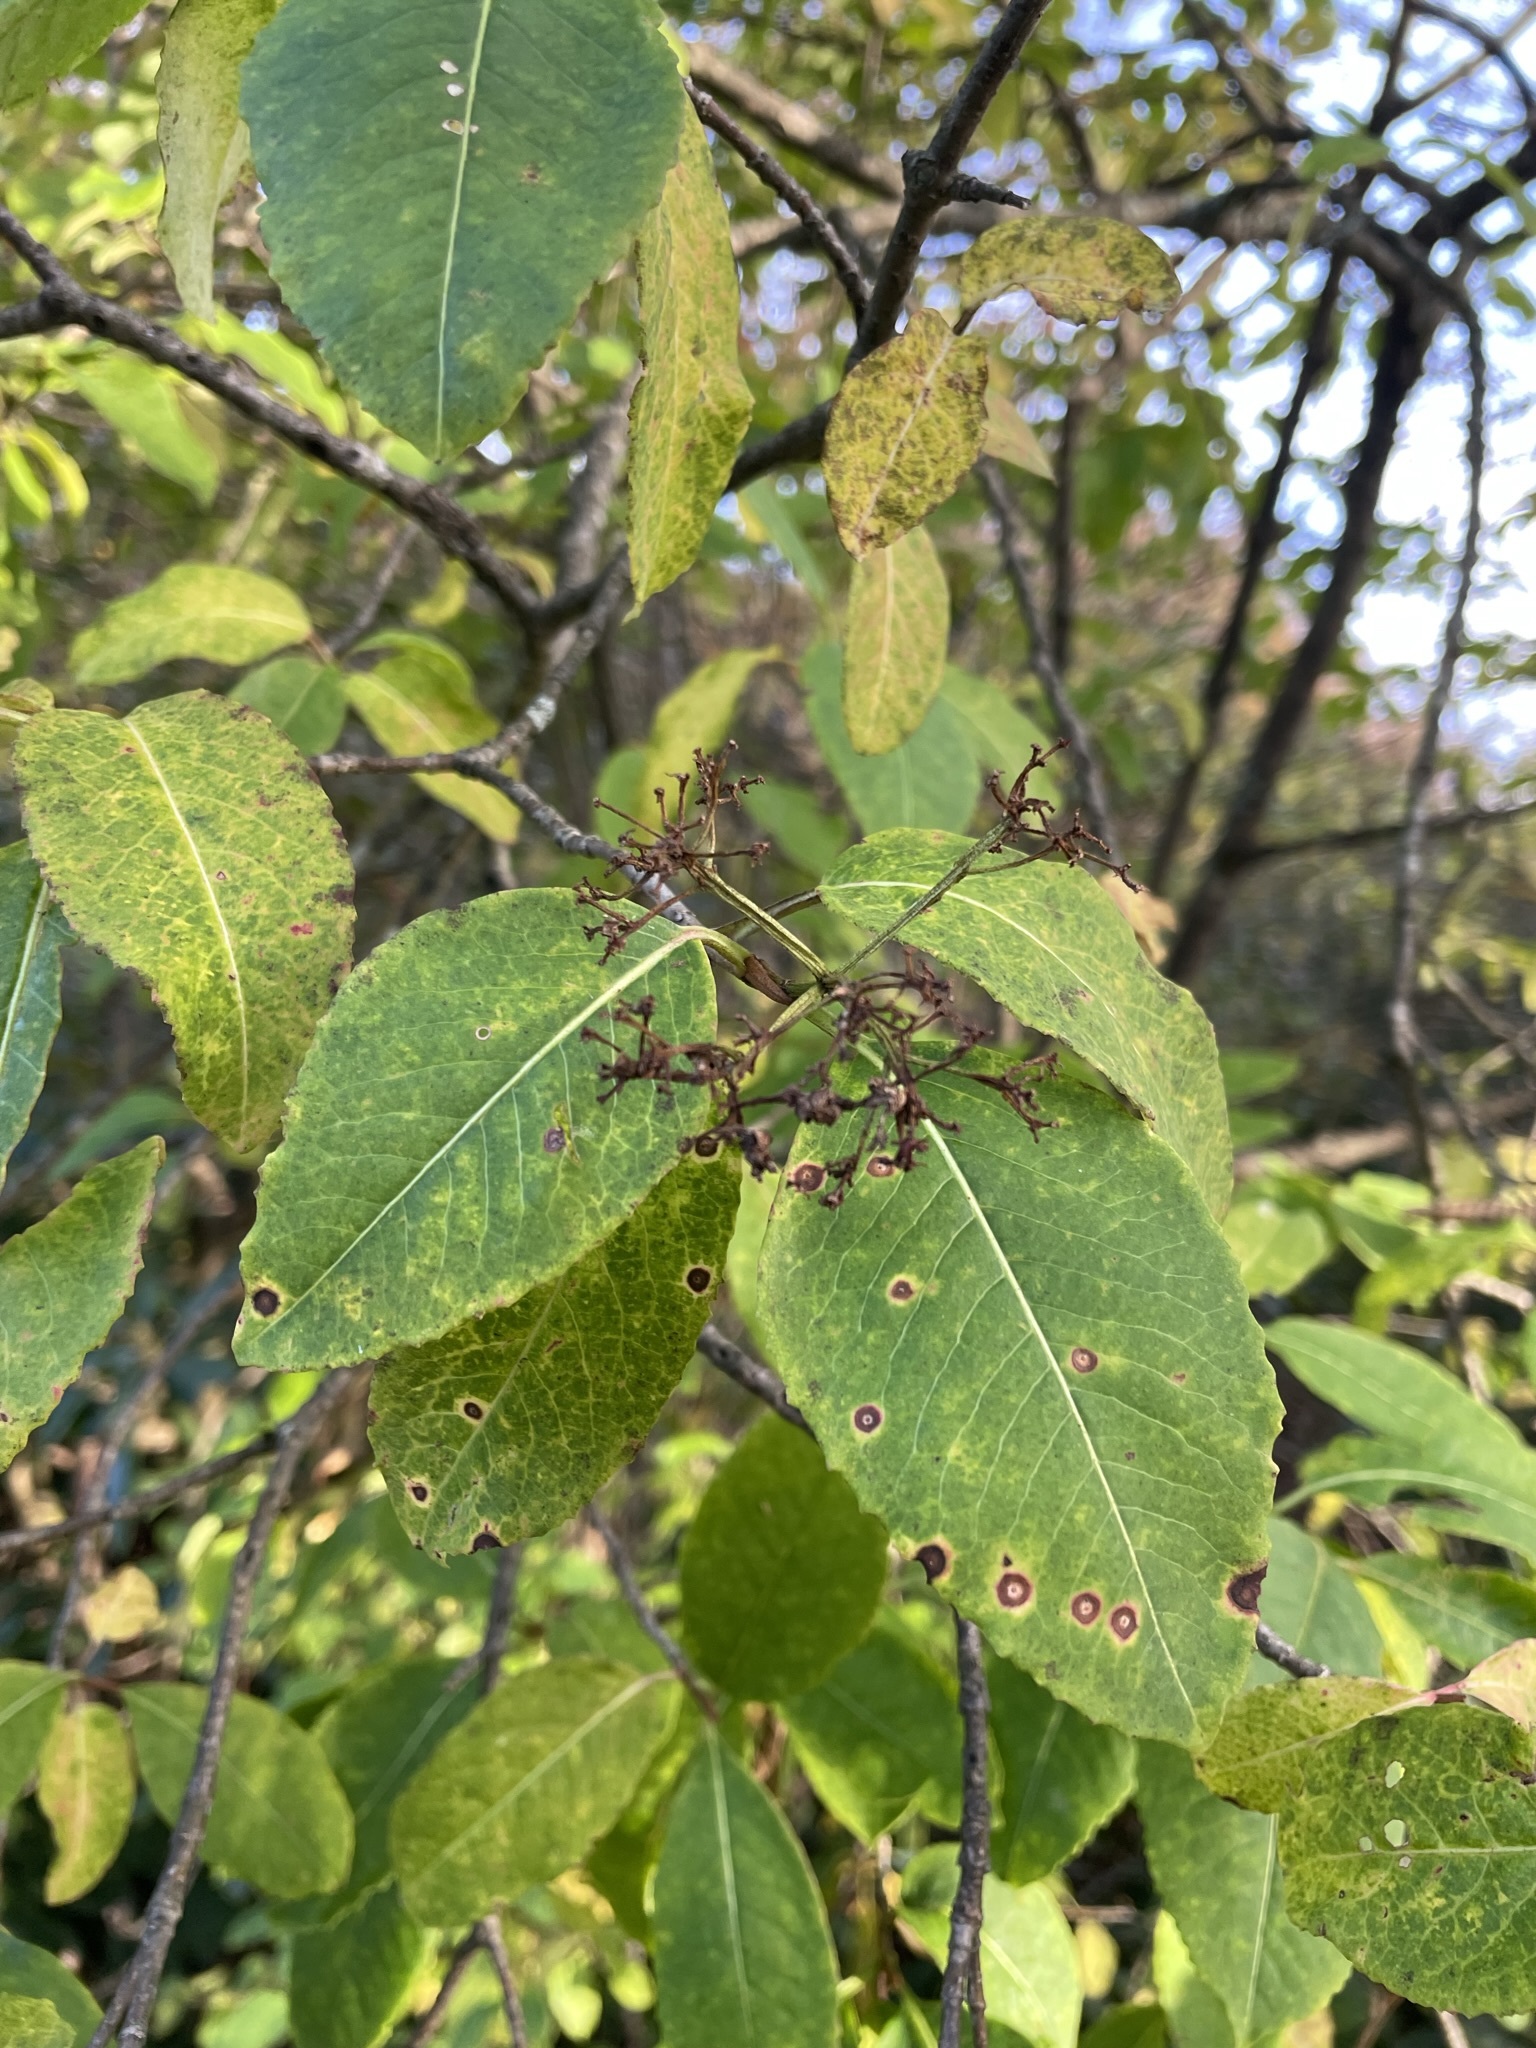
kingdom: Plantae
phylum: Tracheophyta
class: Magnoliopsida
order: Dipsacales
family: Viburnaceae
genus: Viburnum
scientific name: Viburnum cassinoides
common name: Swamp haw
